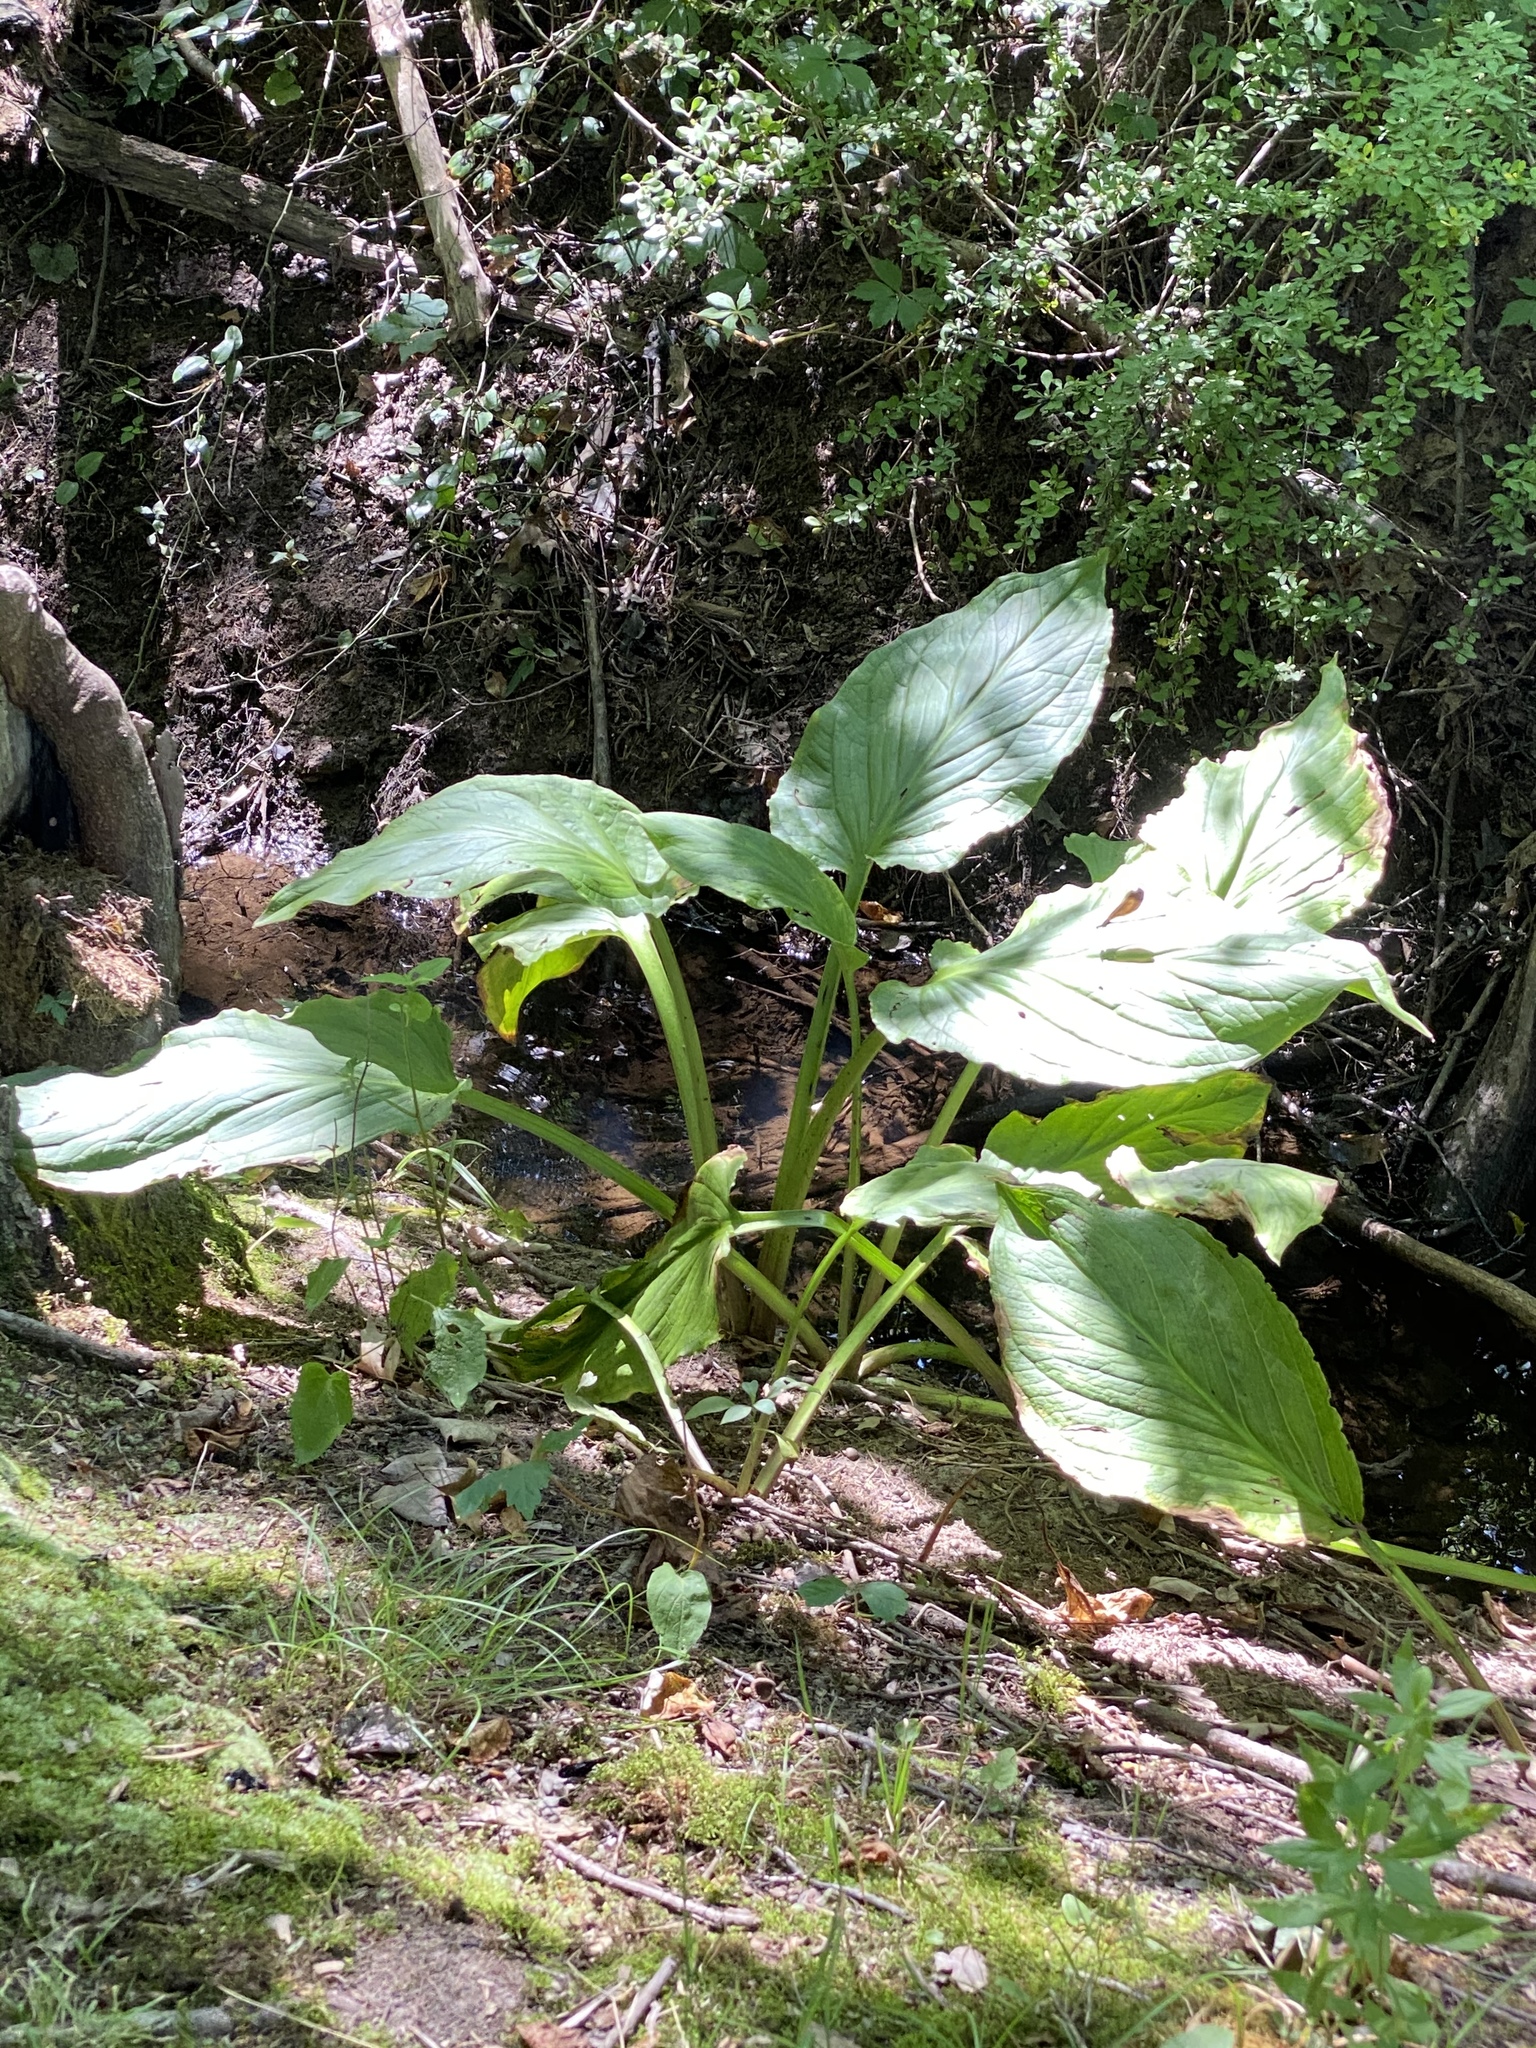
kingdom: Plantae
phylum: Tracheophyta
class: Liliopsida
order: Alismatales
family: Araceae
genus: Symplocarpus
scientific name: Symplocarpus foetidus
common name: Eastern skunk cabbage
